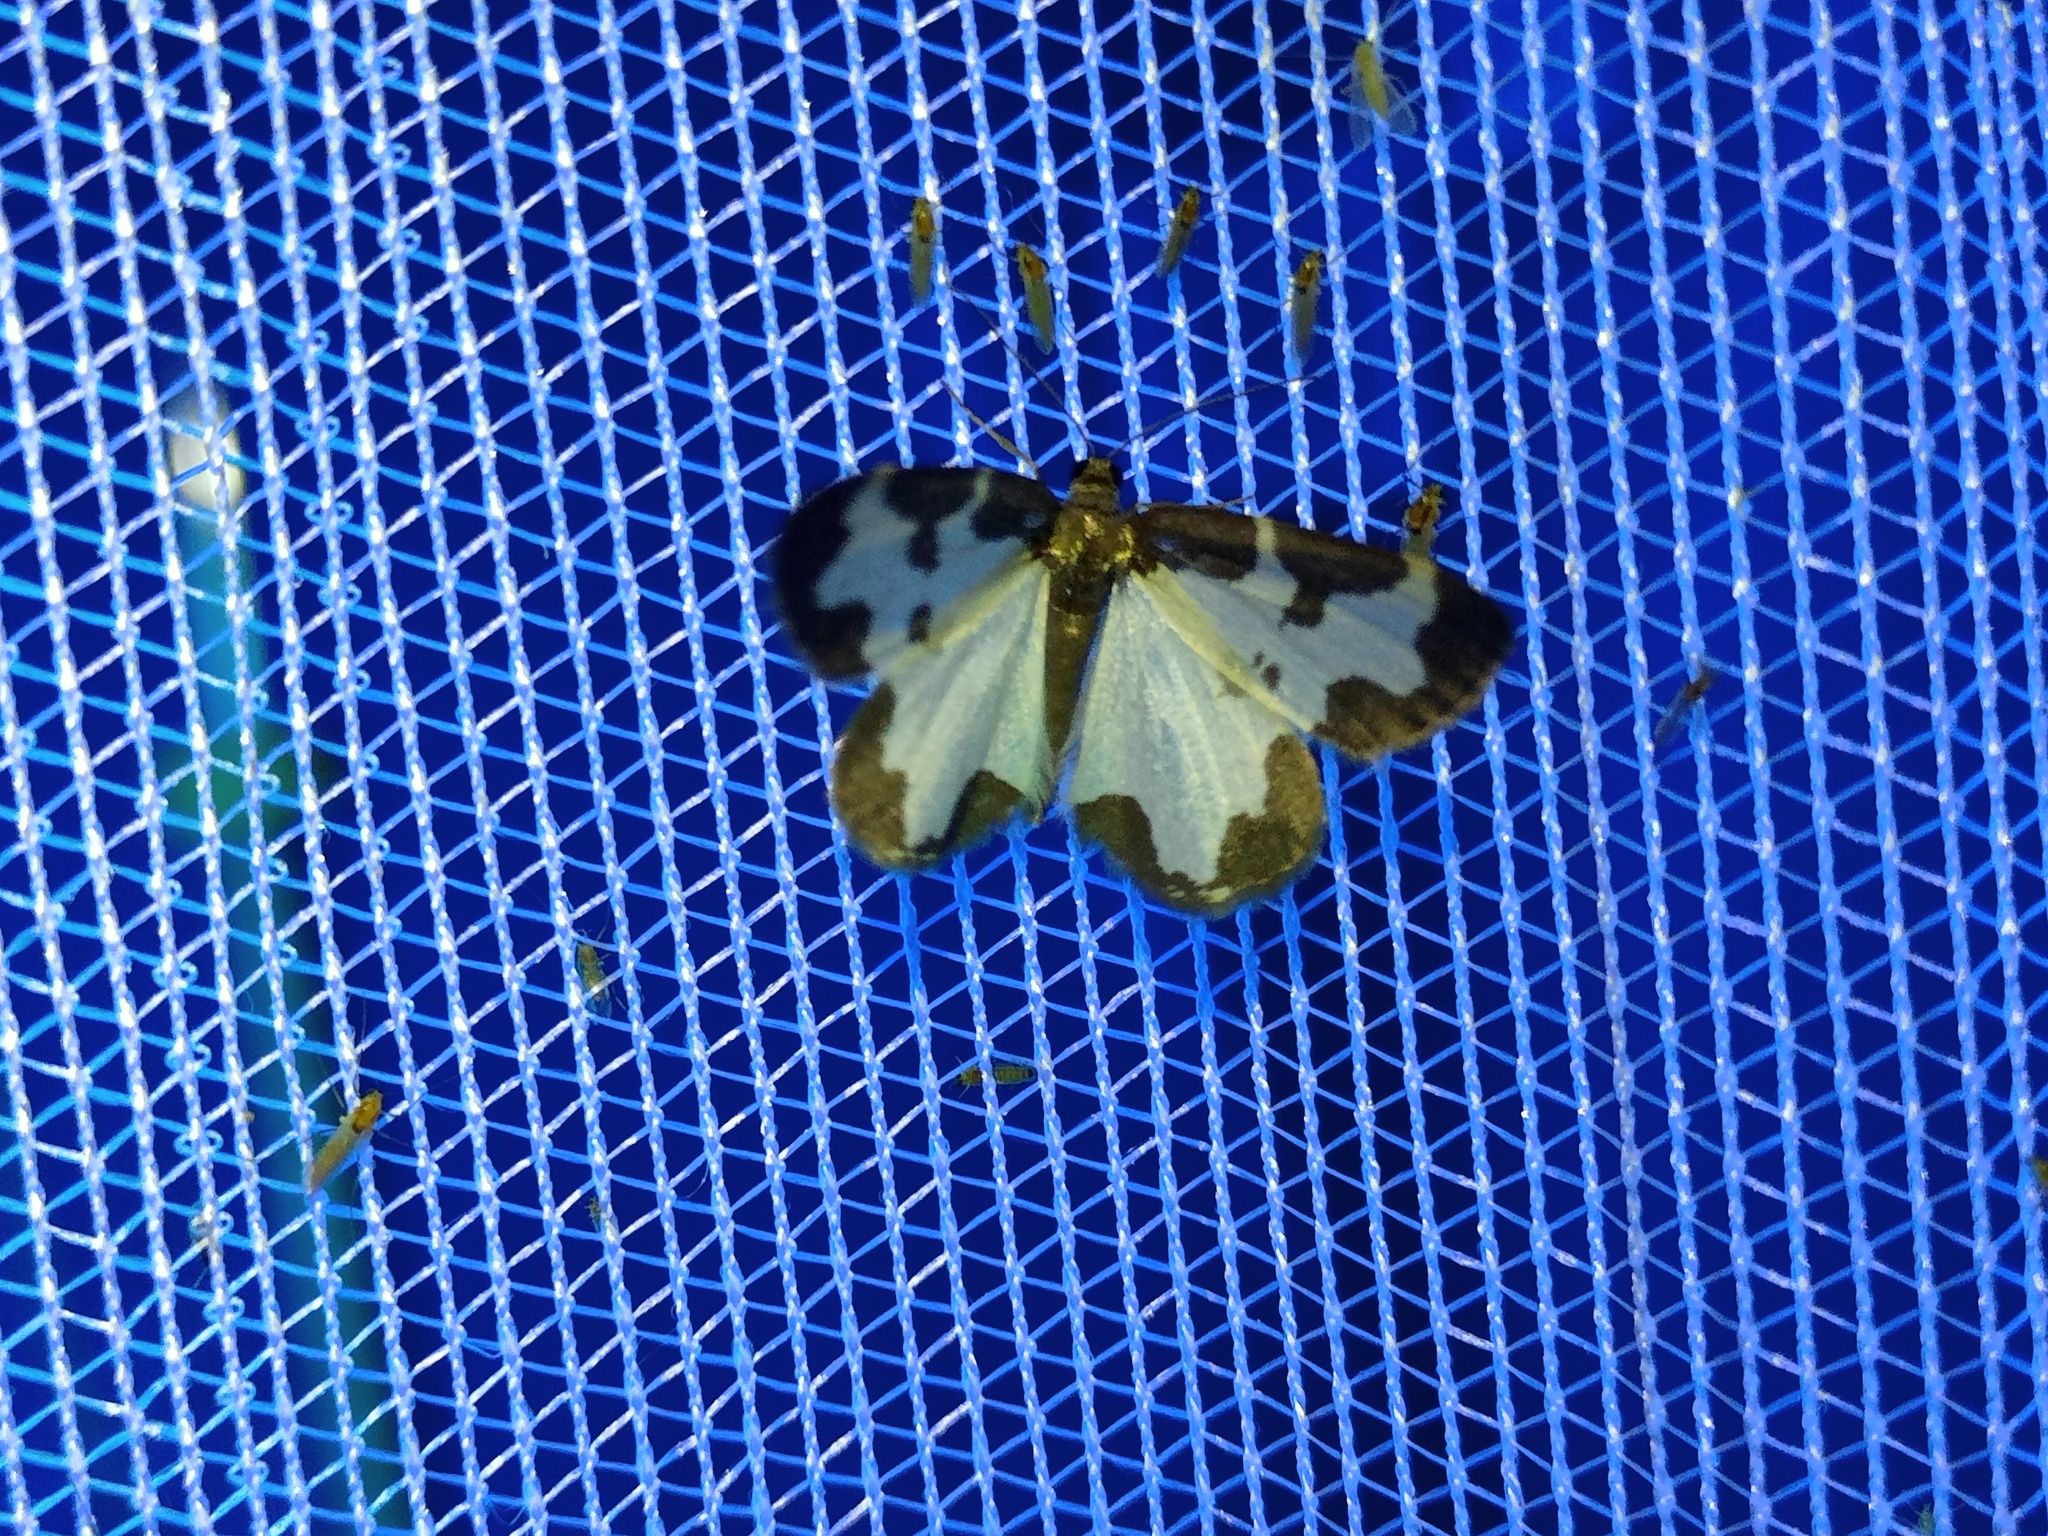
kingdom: Animalia
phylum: Arthropoda
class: Insecta
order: Lepidoptera
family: Geometridae
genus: Lomaspilis
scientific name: Lomaspilis marginata
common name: Clouded border
